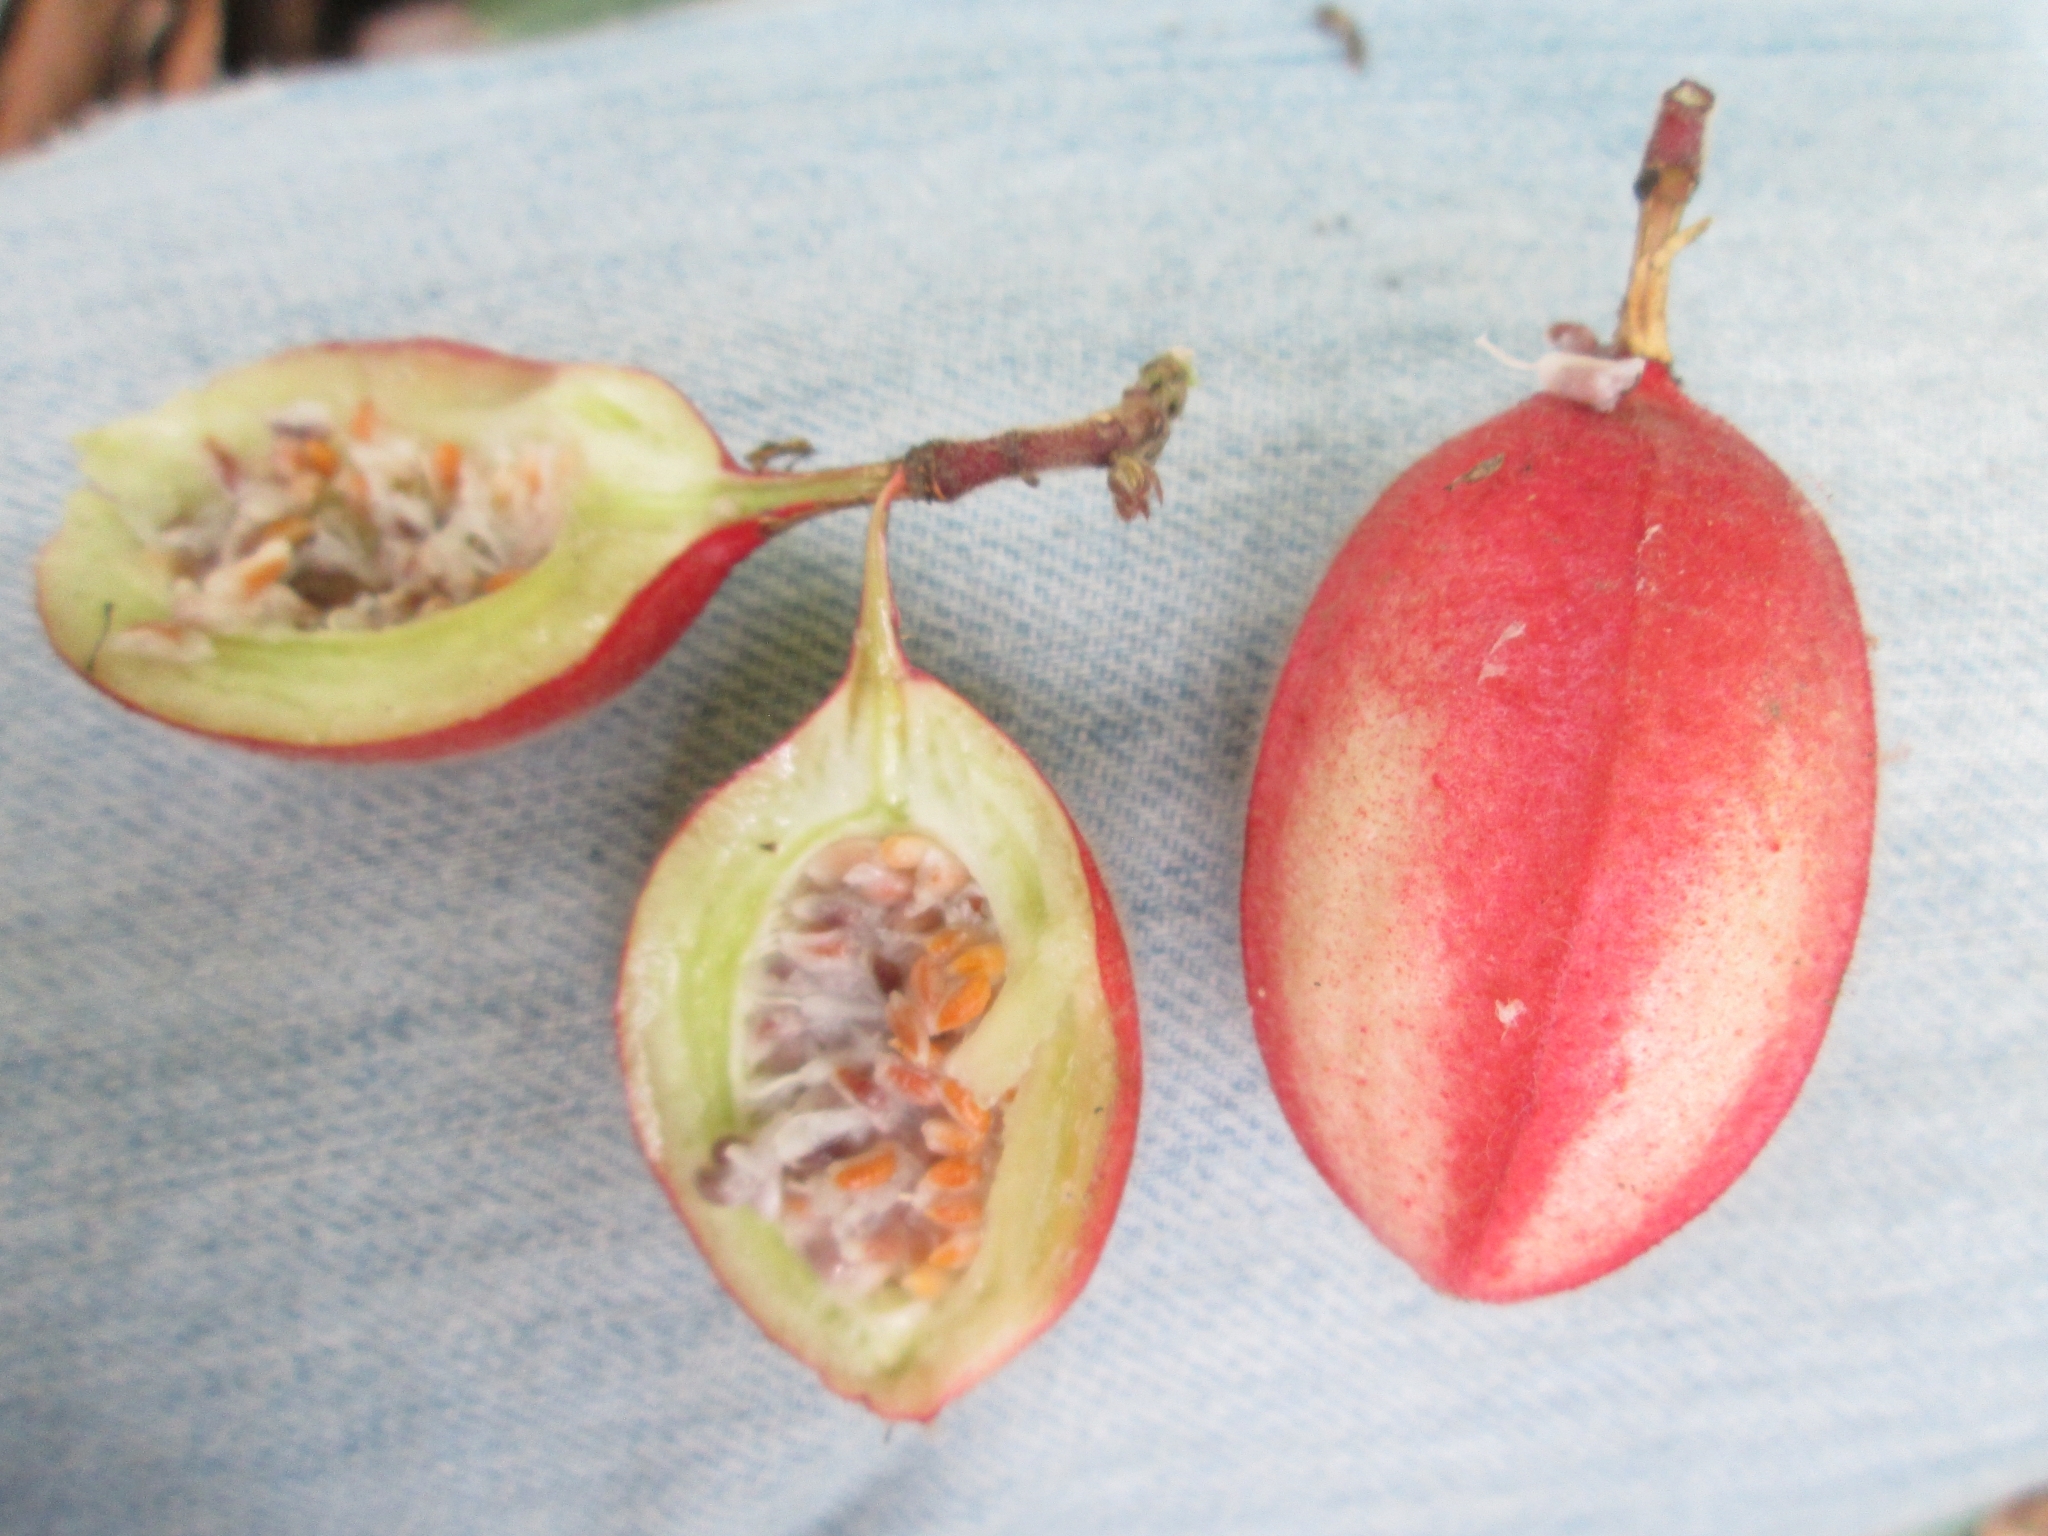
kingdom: Plantae
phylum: Tracheophyta
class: Magnoliopsida
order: Malpighiales
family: Passifloraceae
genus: Passiflora
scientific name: Passiflora cisnana
